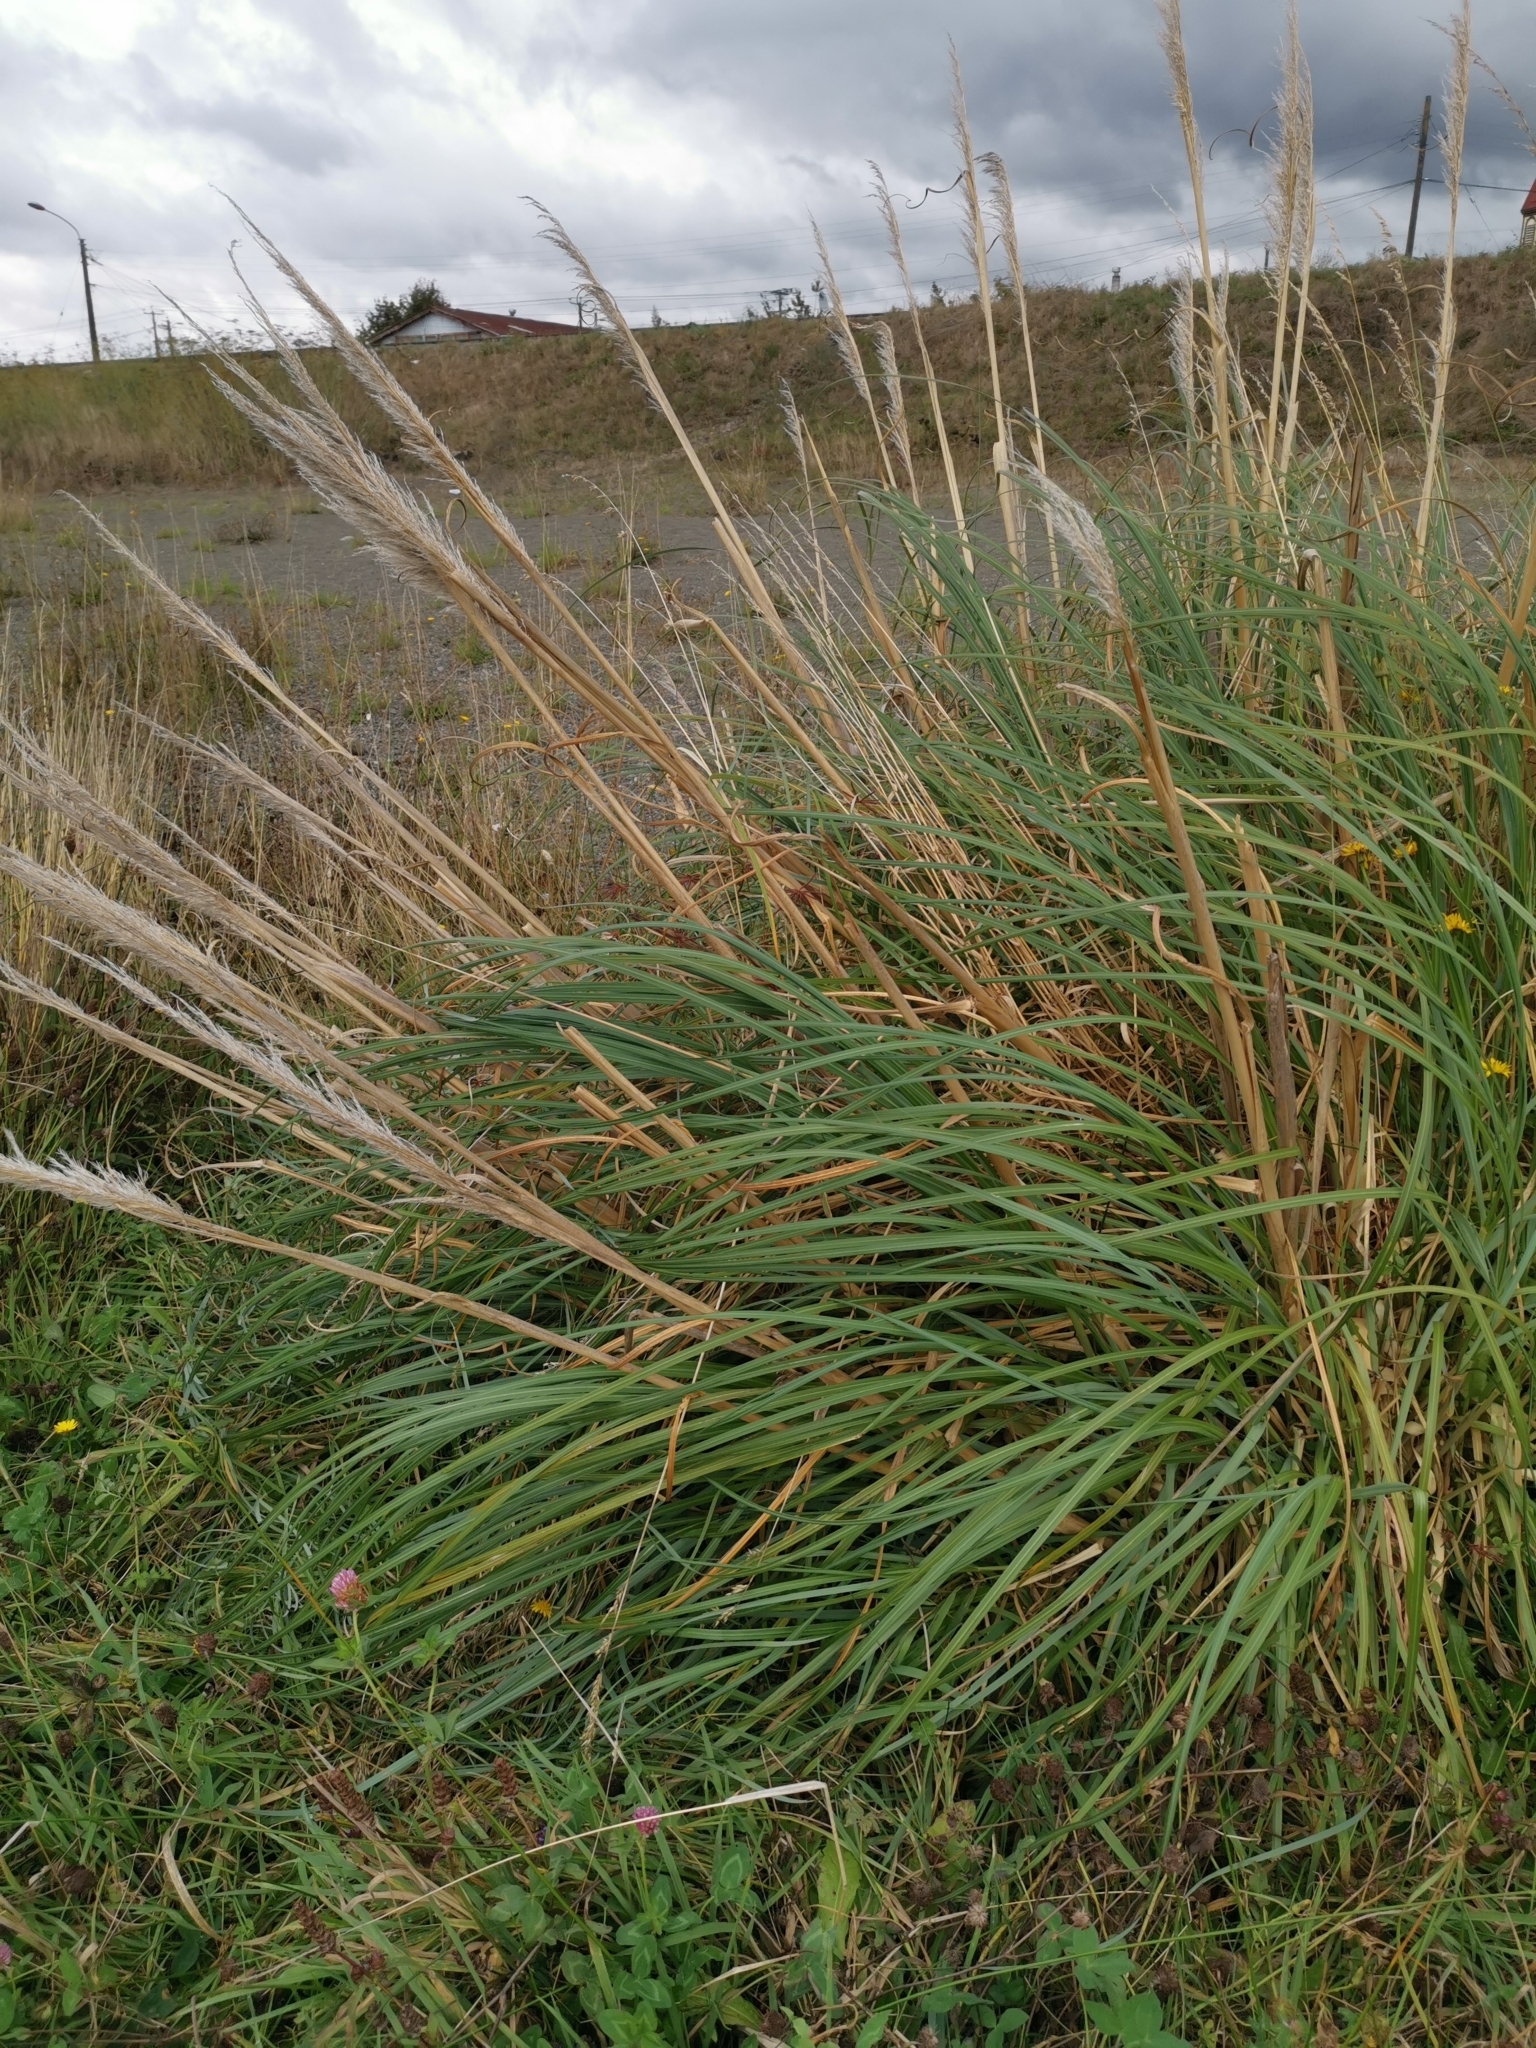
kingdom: Plantae
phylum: Tracheophyta
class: Liliopsida
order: Poales
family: Poaceae
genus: Cortaderia
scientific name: Cortaderia araucana
